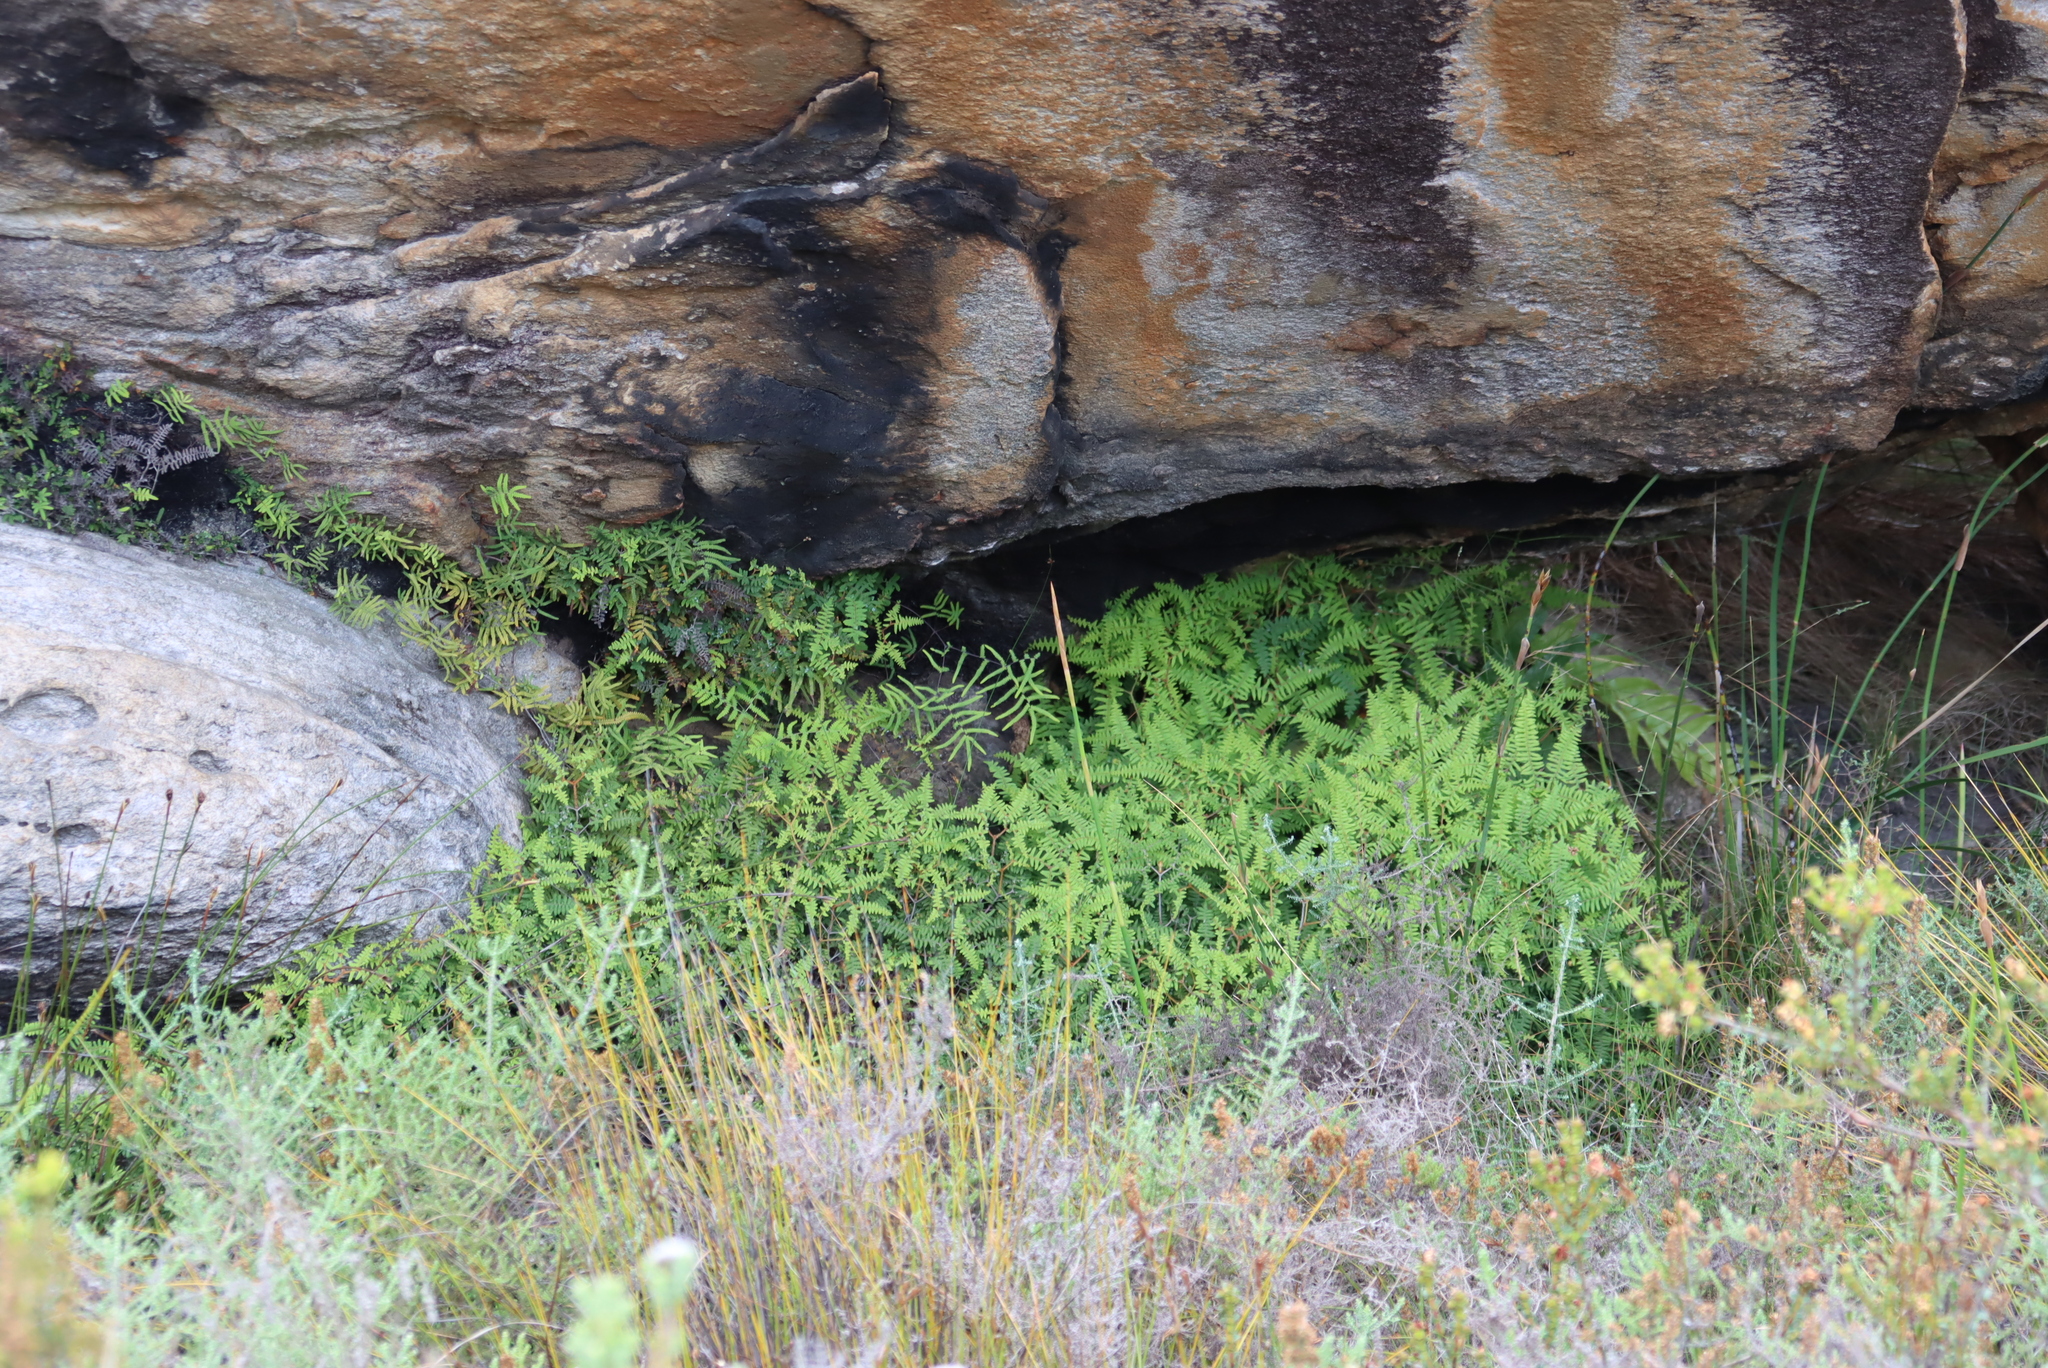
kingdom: Plantae
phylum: Tracheophyta
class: Polypodiopsida
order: Gleicheniales
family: Gleicheniaceae
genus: Gleichenia
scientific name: Gleichenia polypodioides
